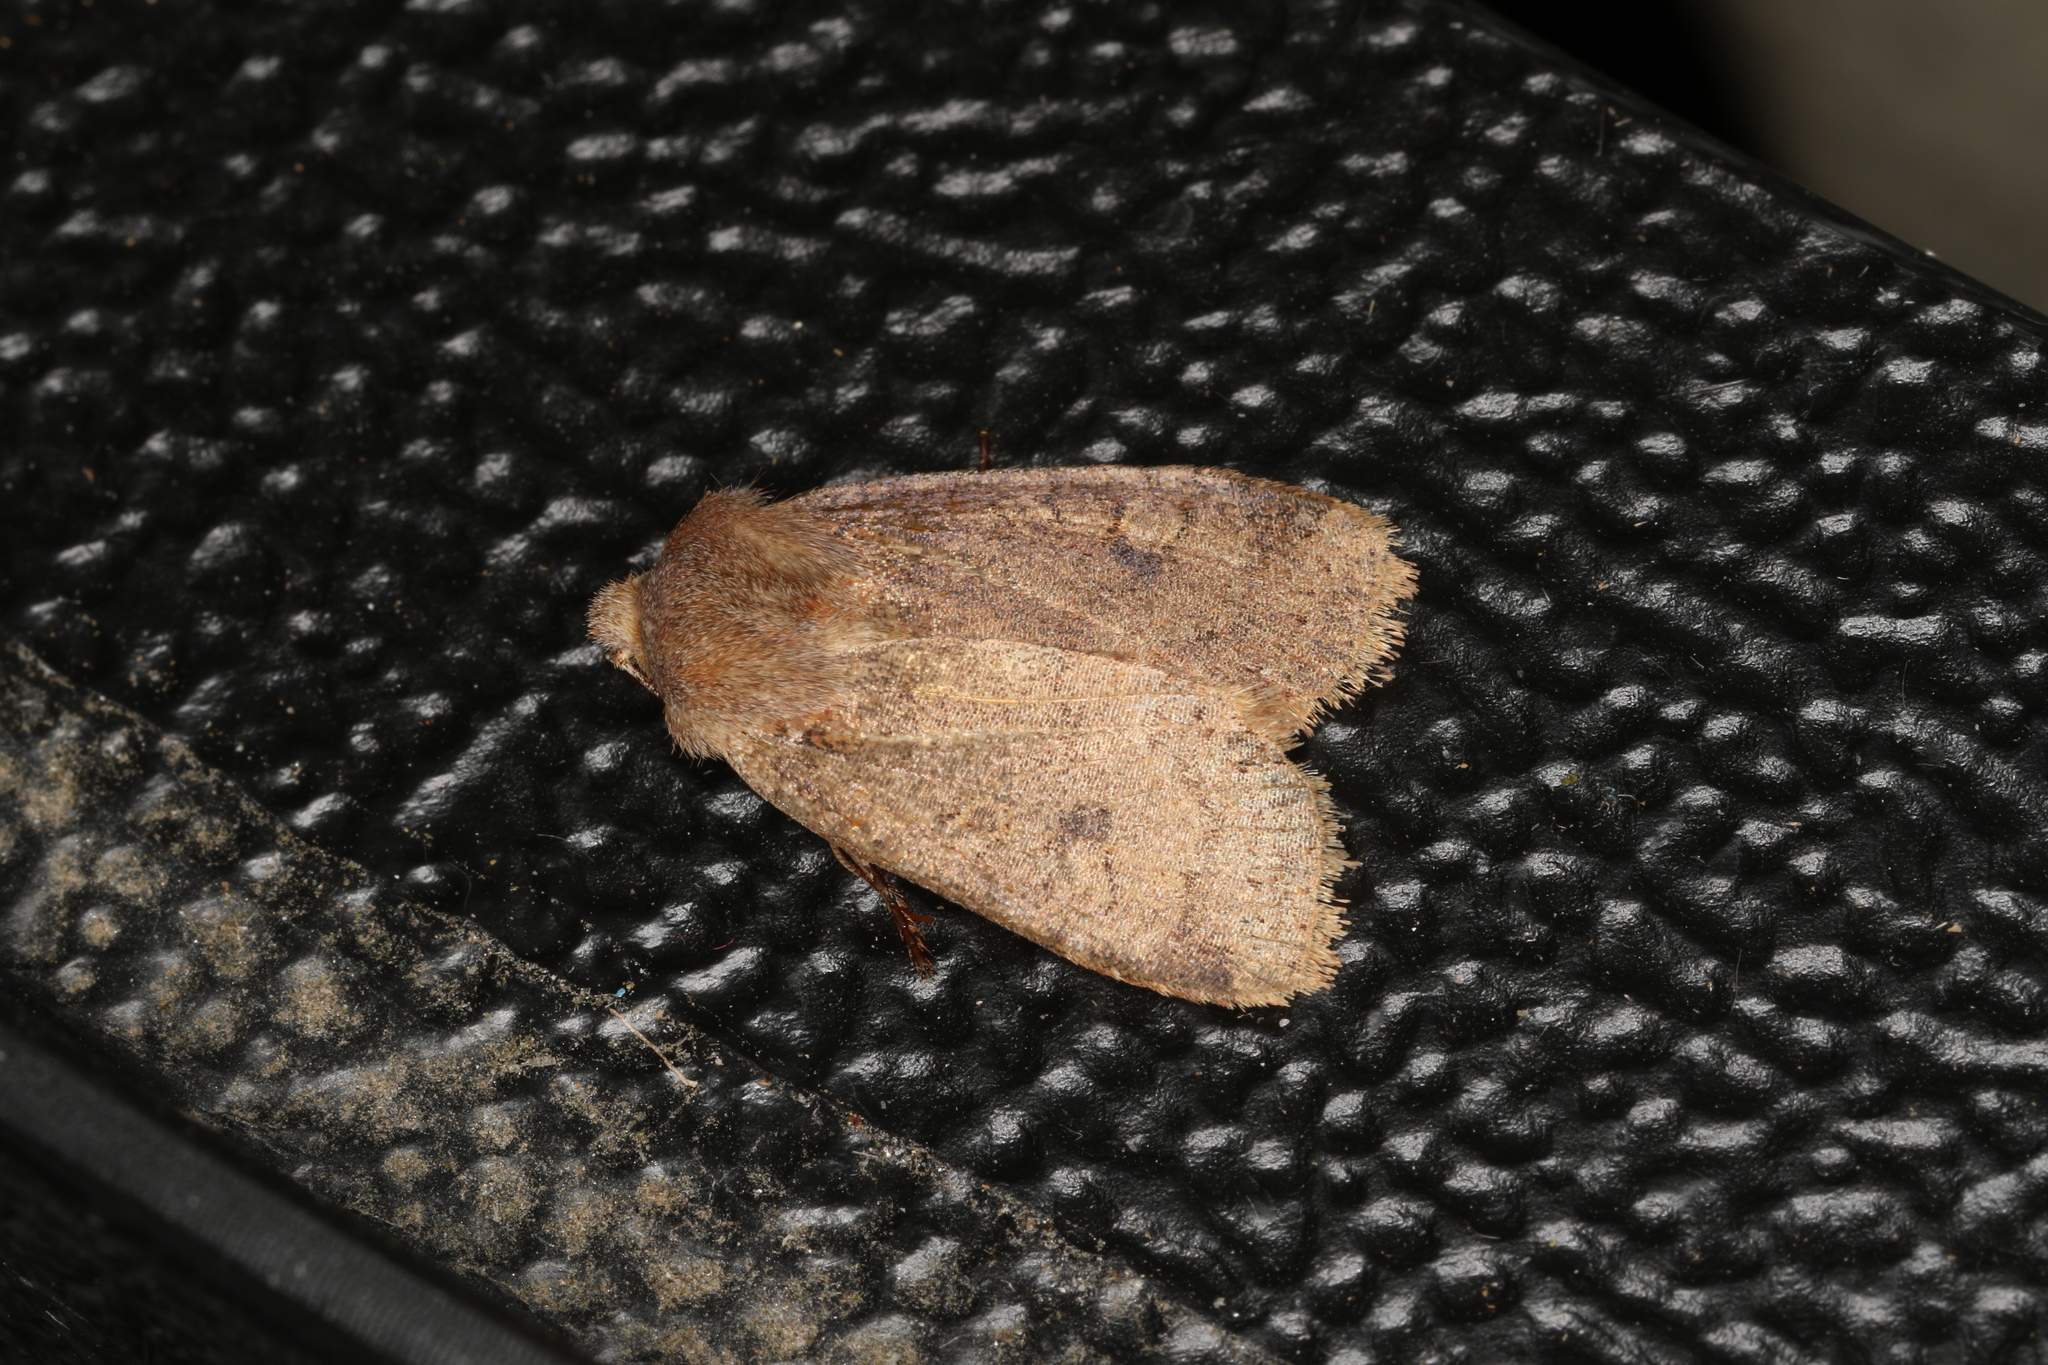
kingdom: Animalia
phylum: Arthropoda
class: Insecta
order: Lepidoptera
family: Noctuidae
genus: Conistra
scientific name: Conistra vaccinii
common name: Chestnut
